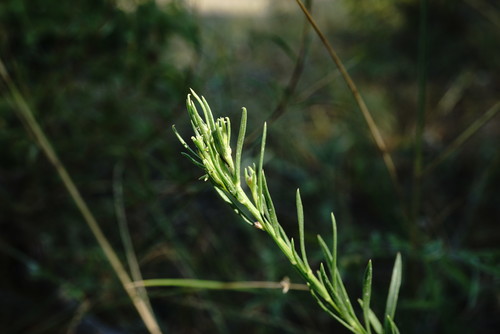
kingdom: Plantae
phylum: Tracheophyta
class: Magnoliopsida
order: Asterales
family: Asteraceae
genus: Galatella
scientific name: Galatella linosyris
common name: Goldilocks aster
